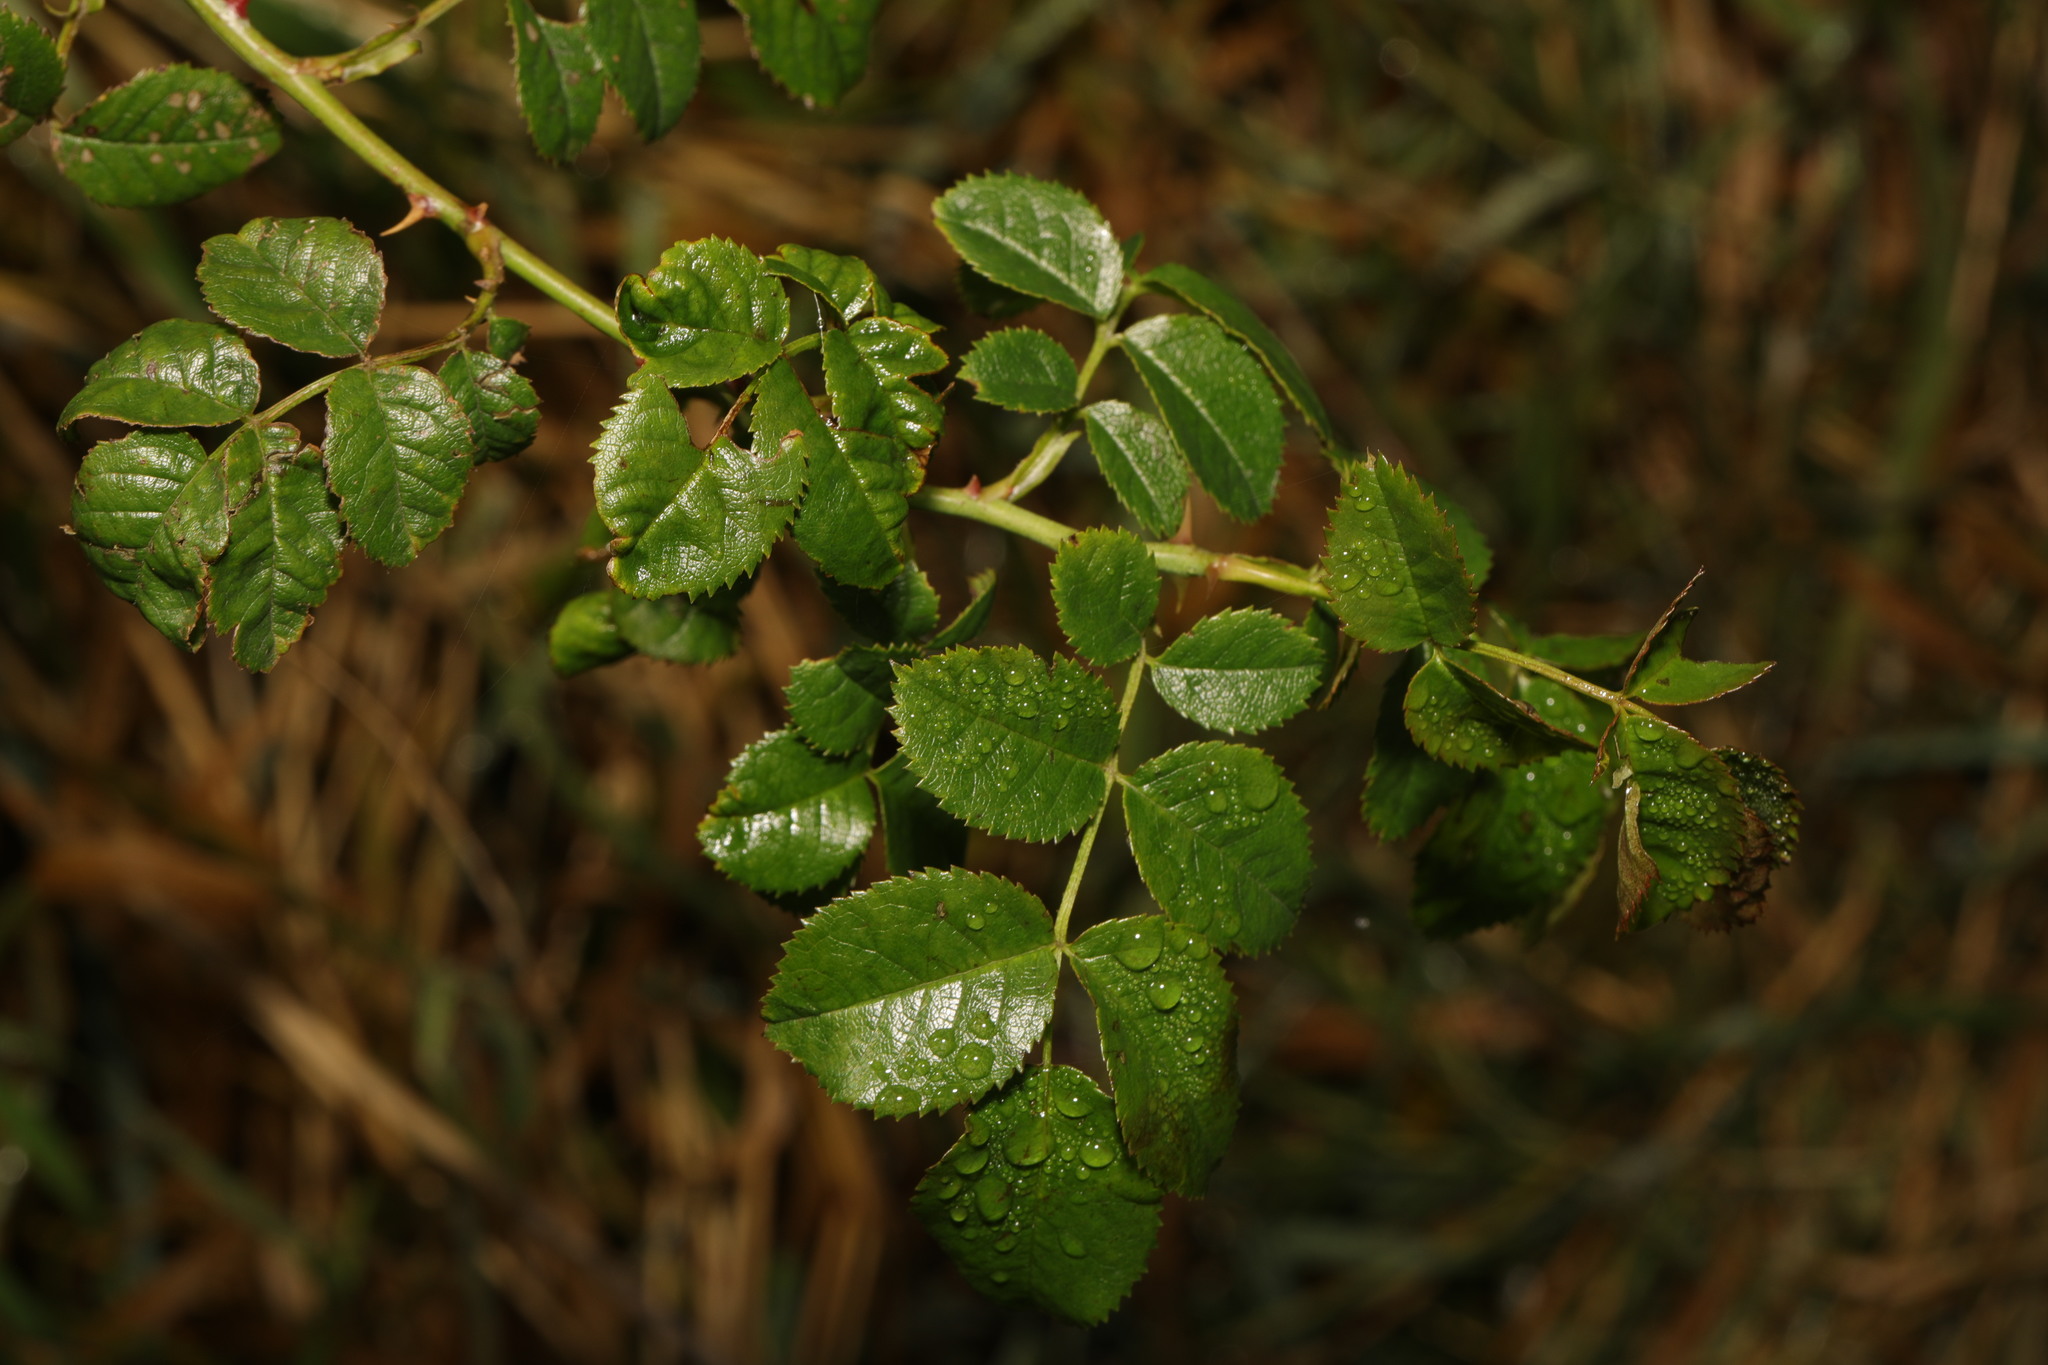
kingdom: Plantae
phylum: Tracheophyta
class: Magnoliopsida
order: Rosales
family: Rosaceae
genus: Rosa
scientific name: Rosa canina
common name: Dog rose
